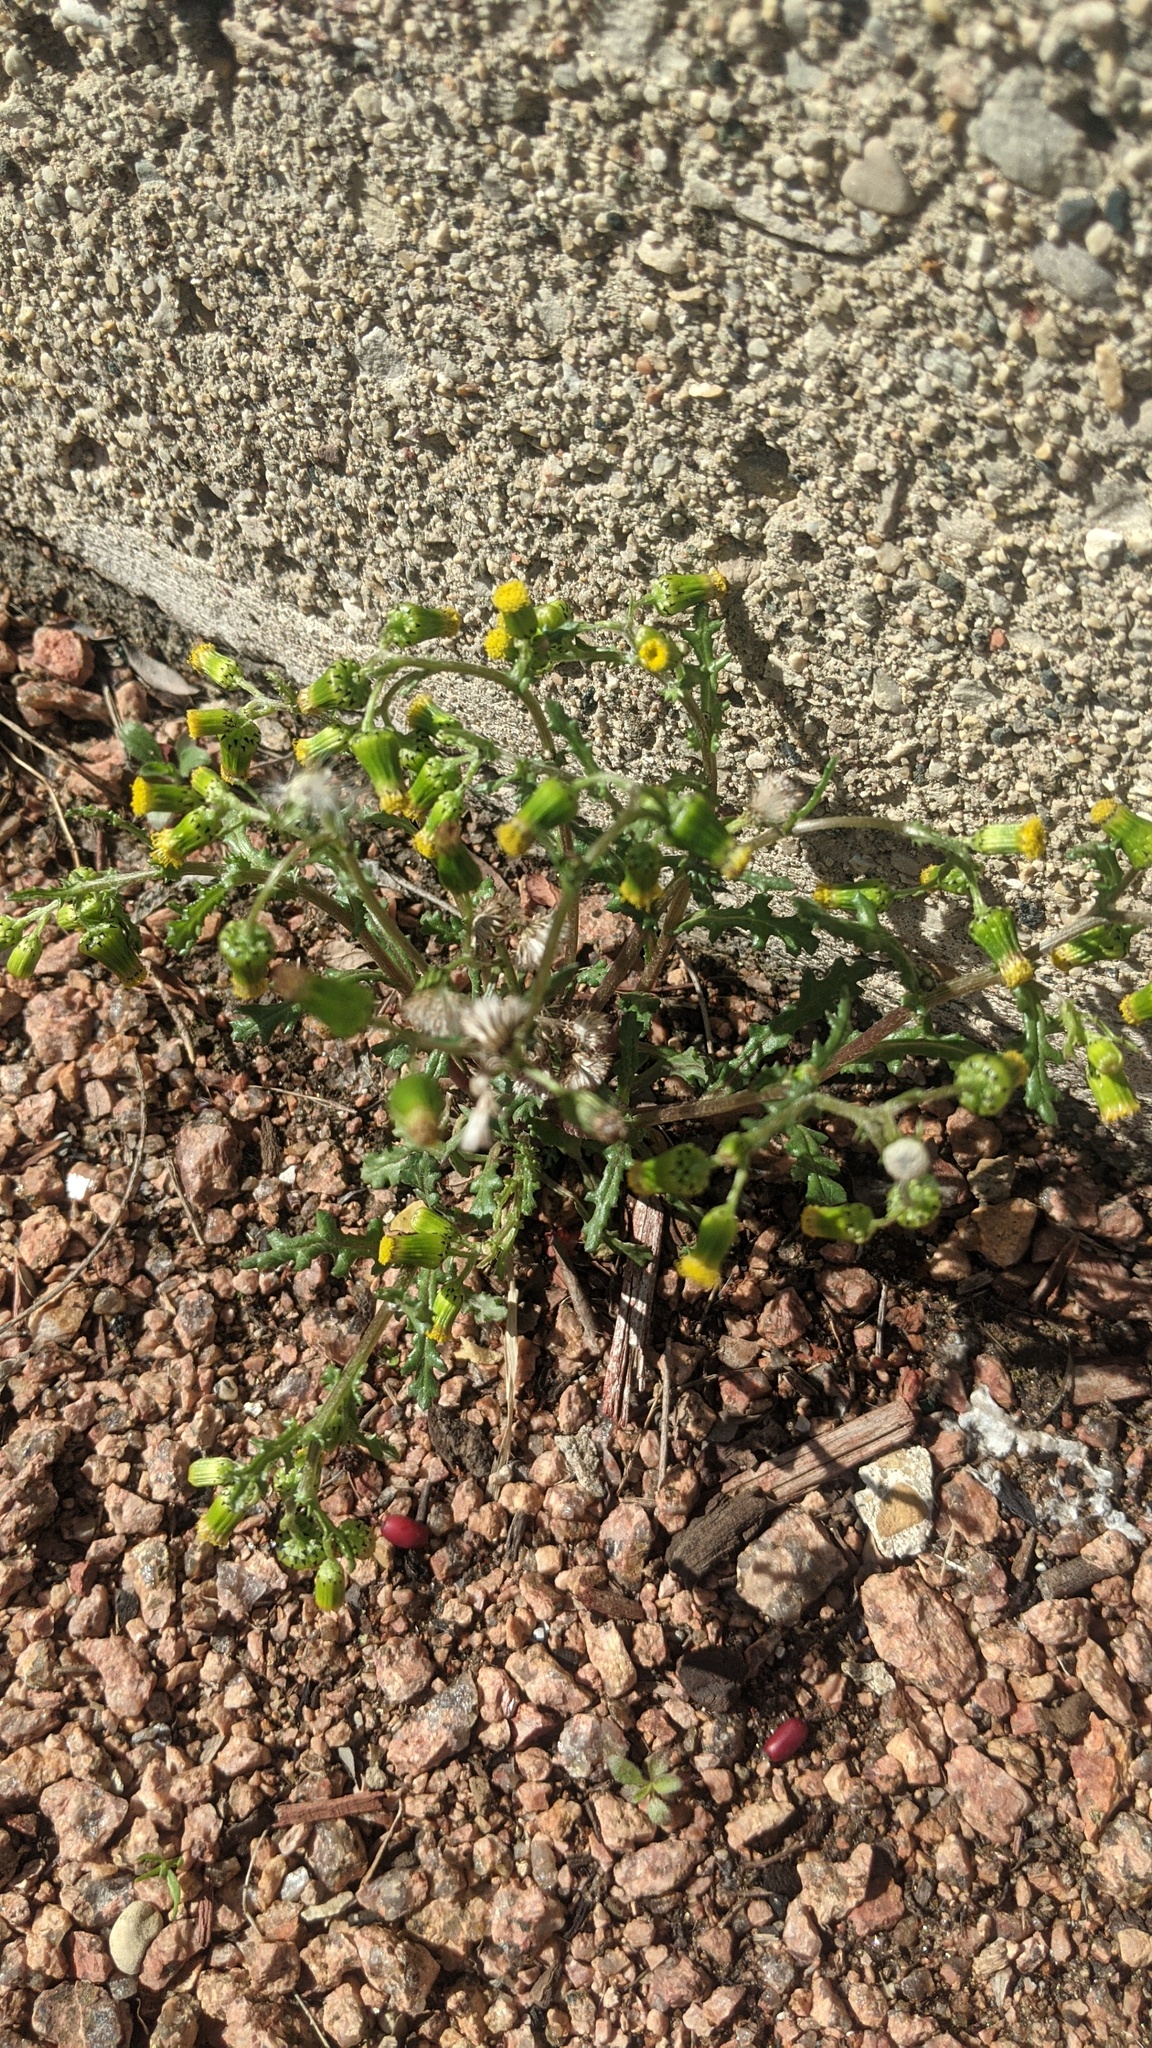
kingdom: Plantae
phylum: Tracheophyta
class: Magnoliopsida
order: Asterales
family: Asteraceae
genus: Senecio
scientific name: Senecio vulgaris
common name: Old-man-in-the-spring
